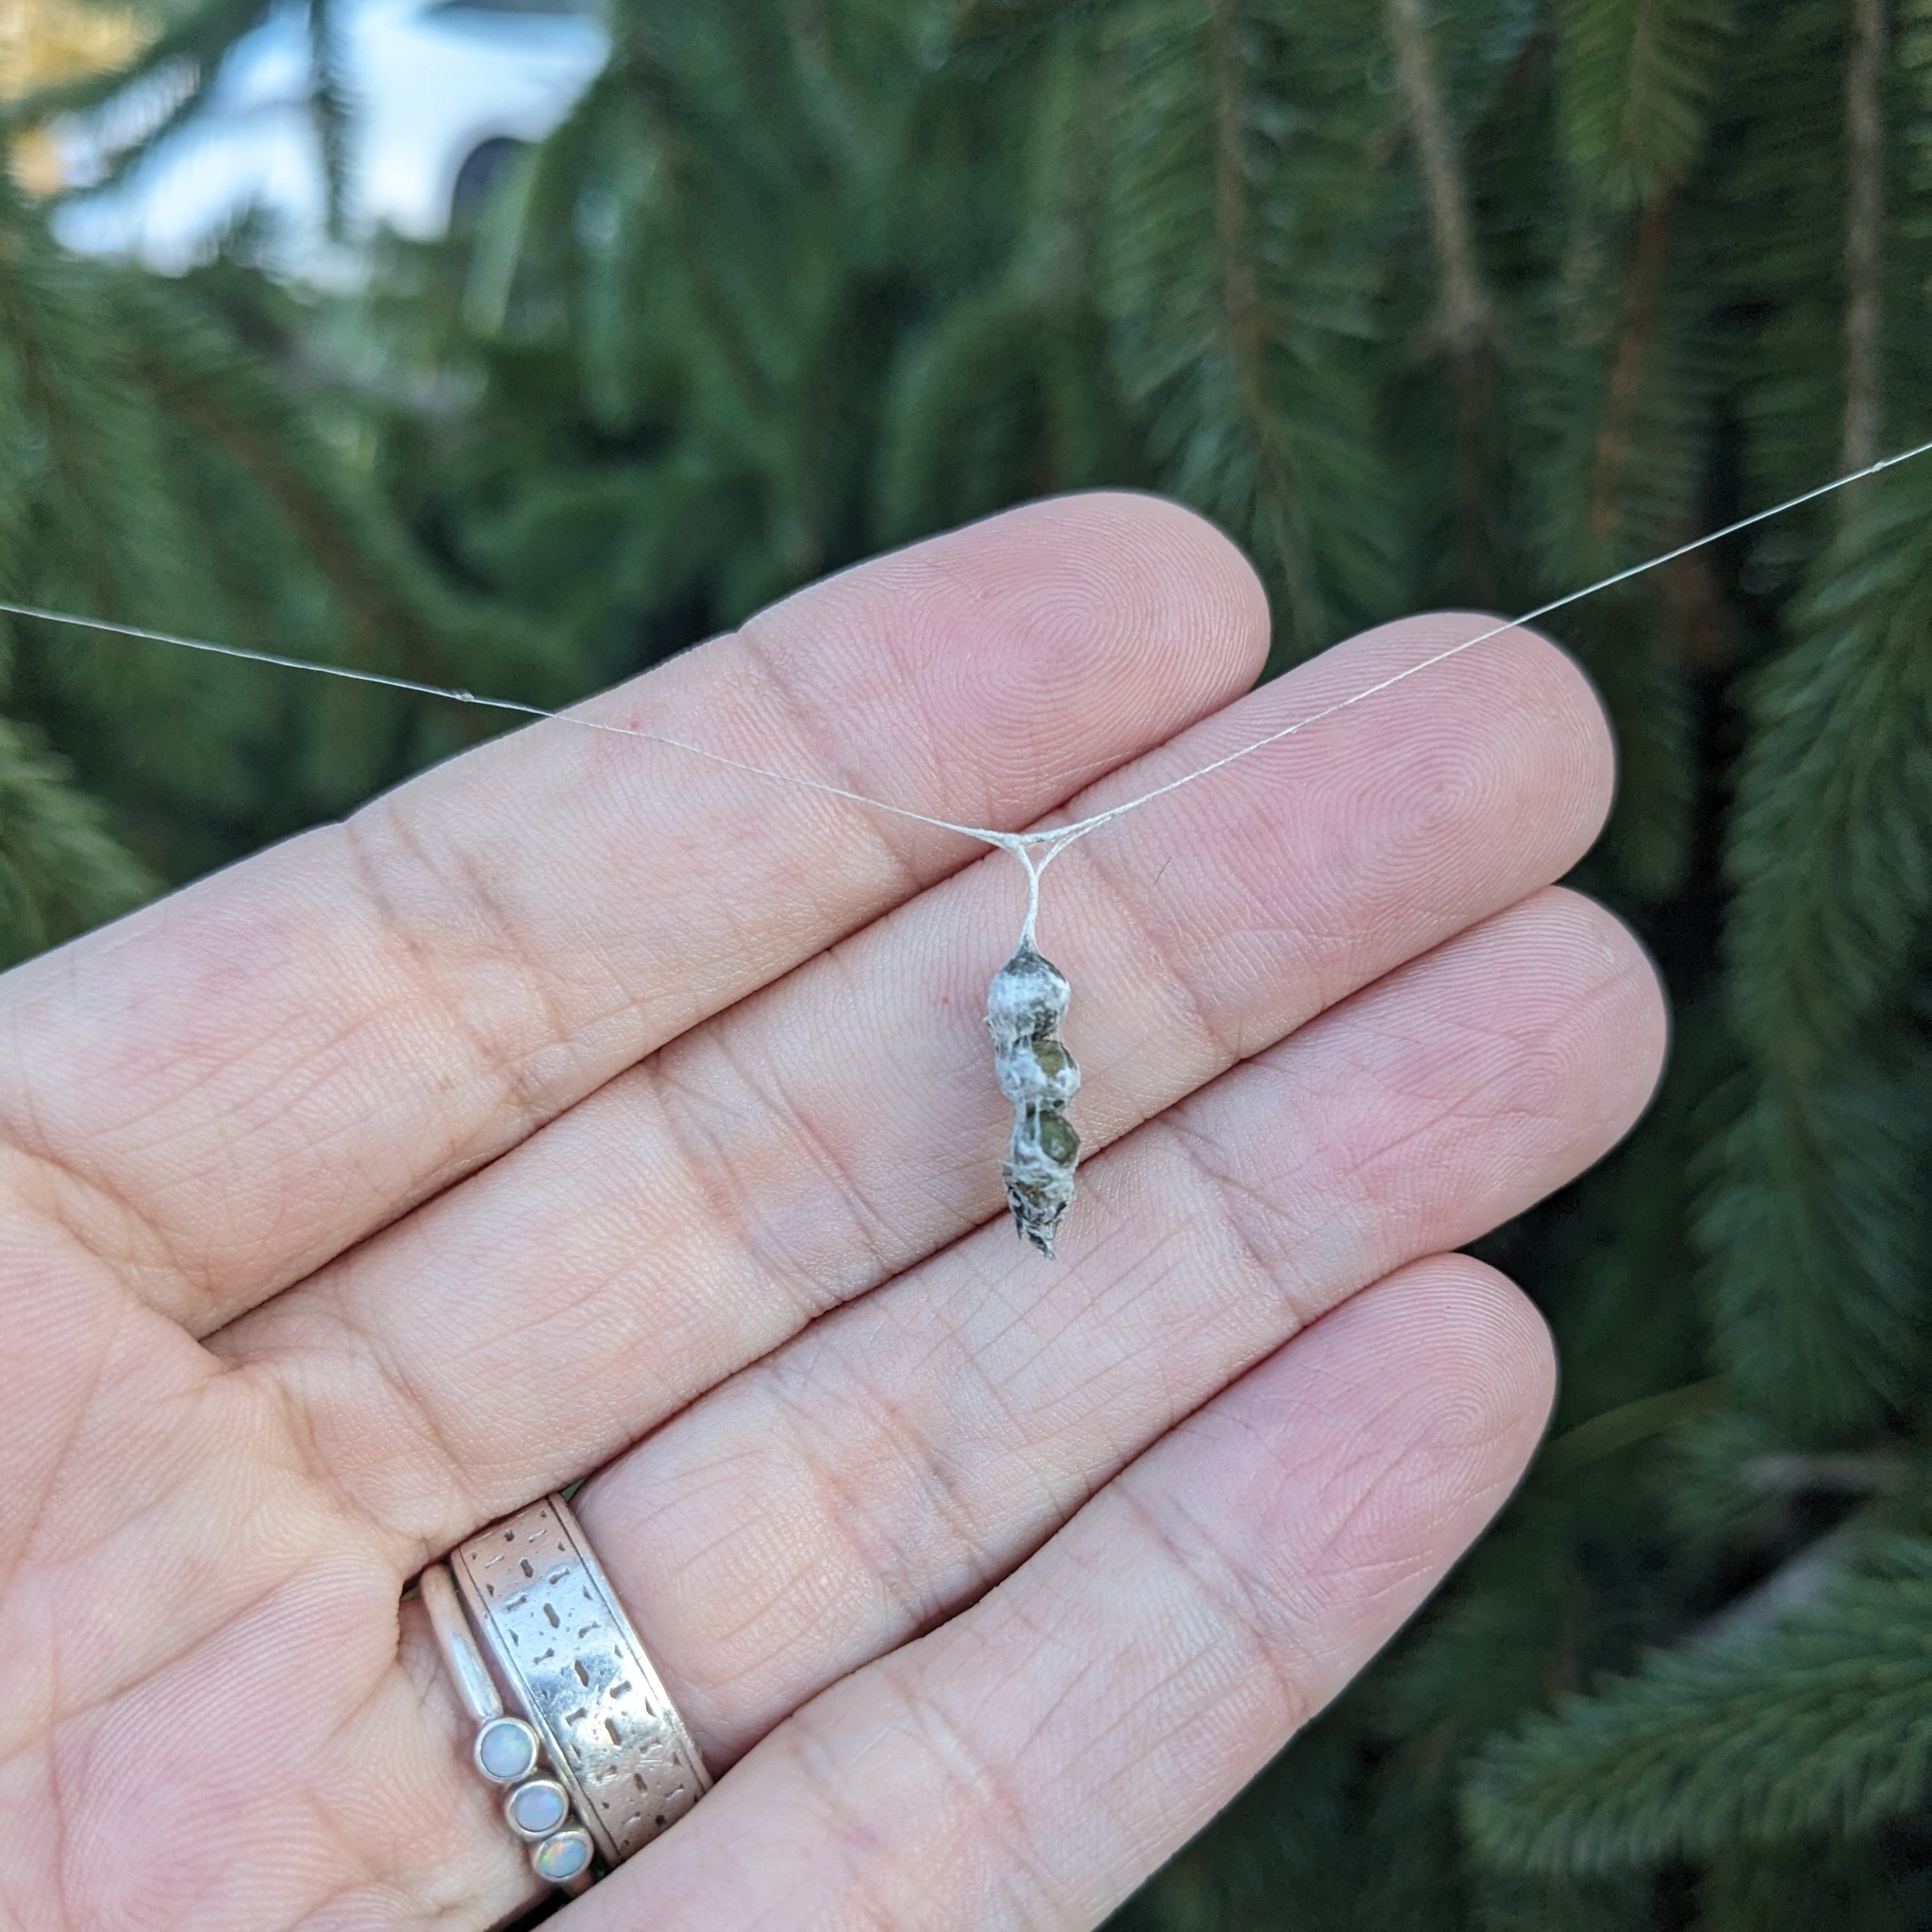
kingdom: Animalia
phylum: Arthropoda
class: Arachnida
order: Araneae
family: Araneidae
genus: Mecynogea
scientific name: Mecynogea lemniscata
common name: Orb weavers
